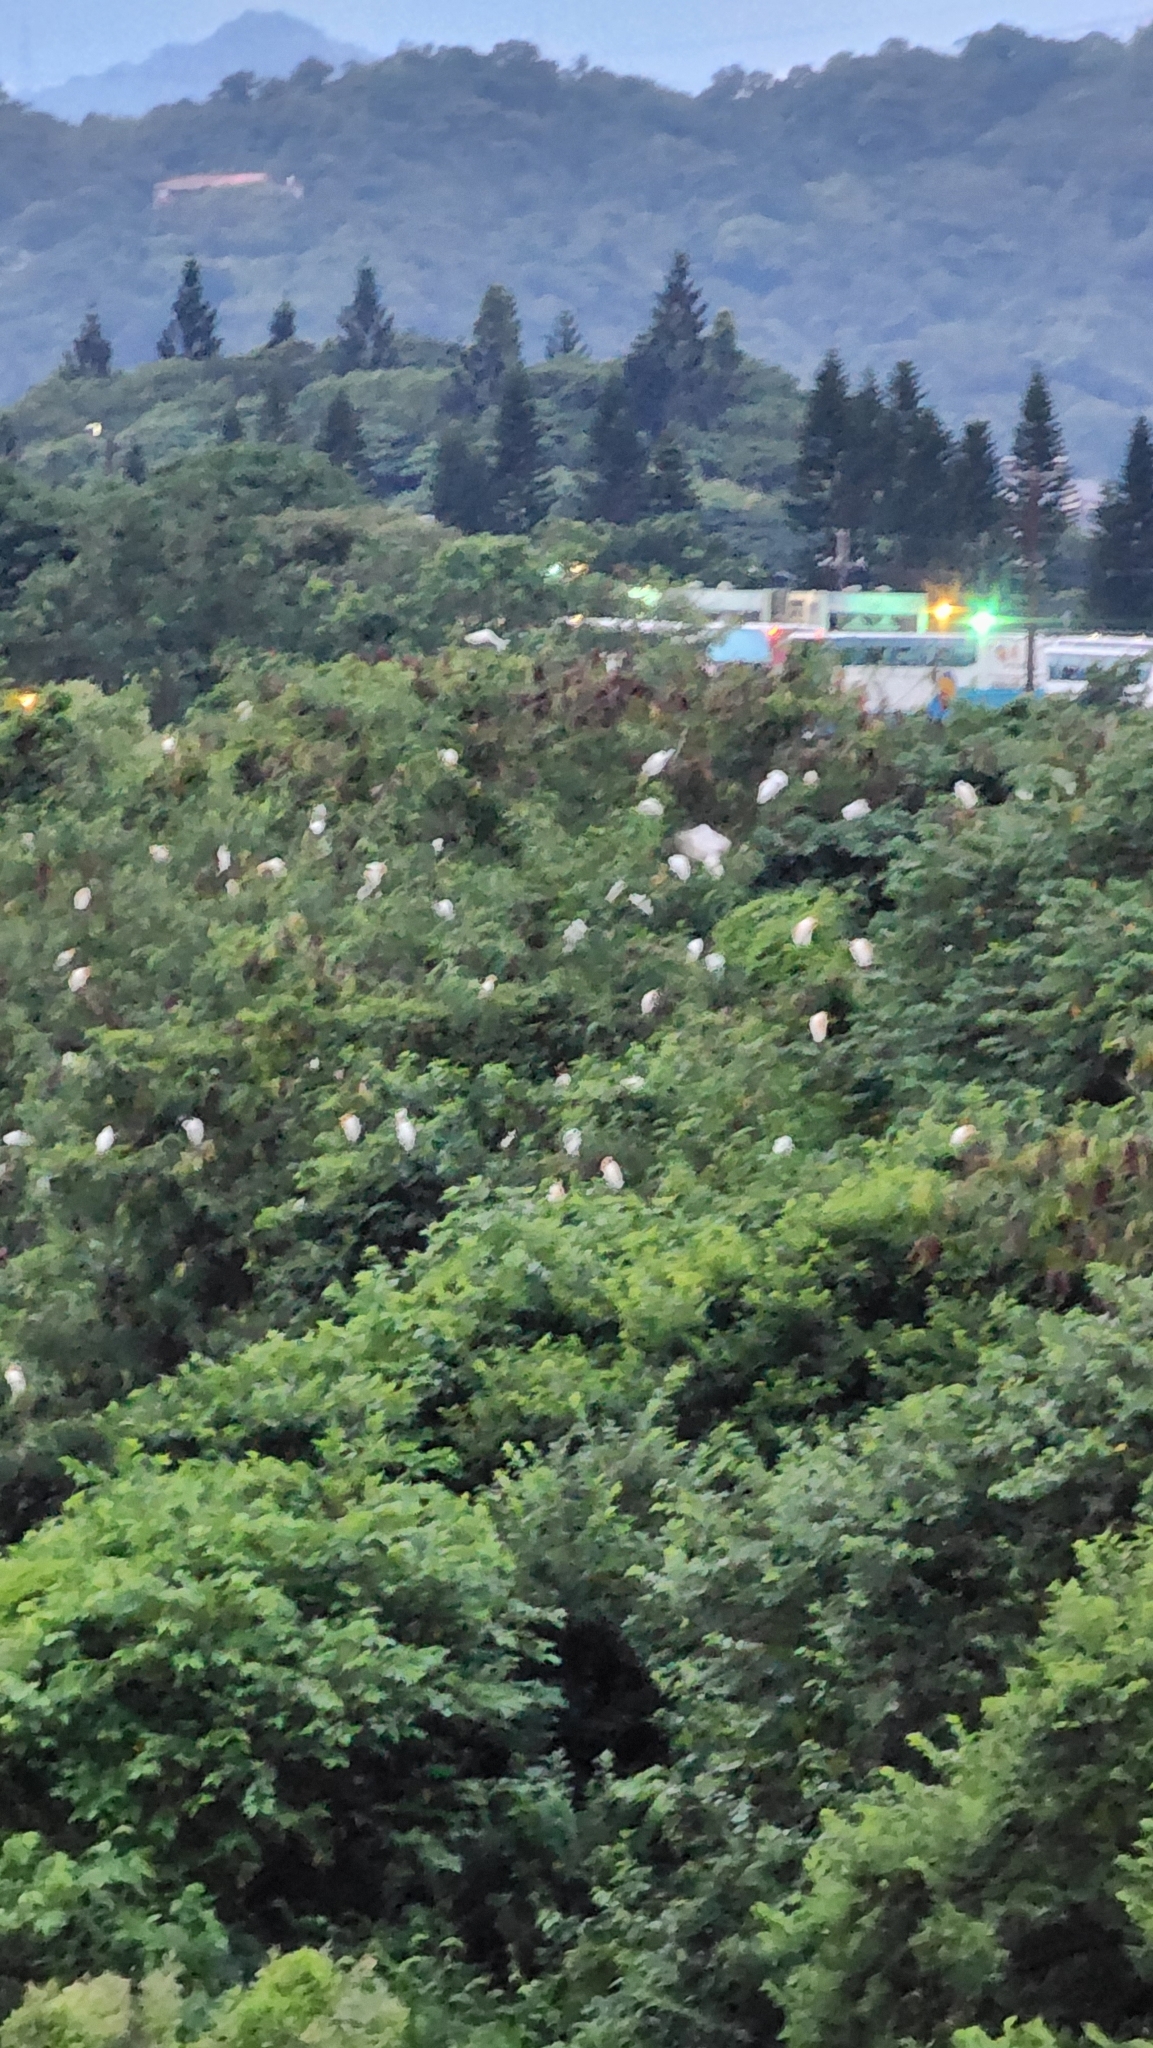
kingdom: Animalia
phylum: Chordata
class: Aves
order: Pelecaniformes
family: Ardeidae
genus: Bubulcus
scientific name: Bubulcus coromandus
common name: Eastern cattle egret
